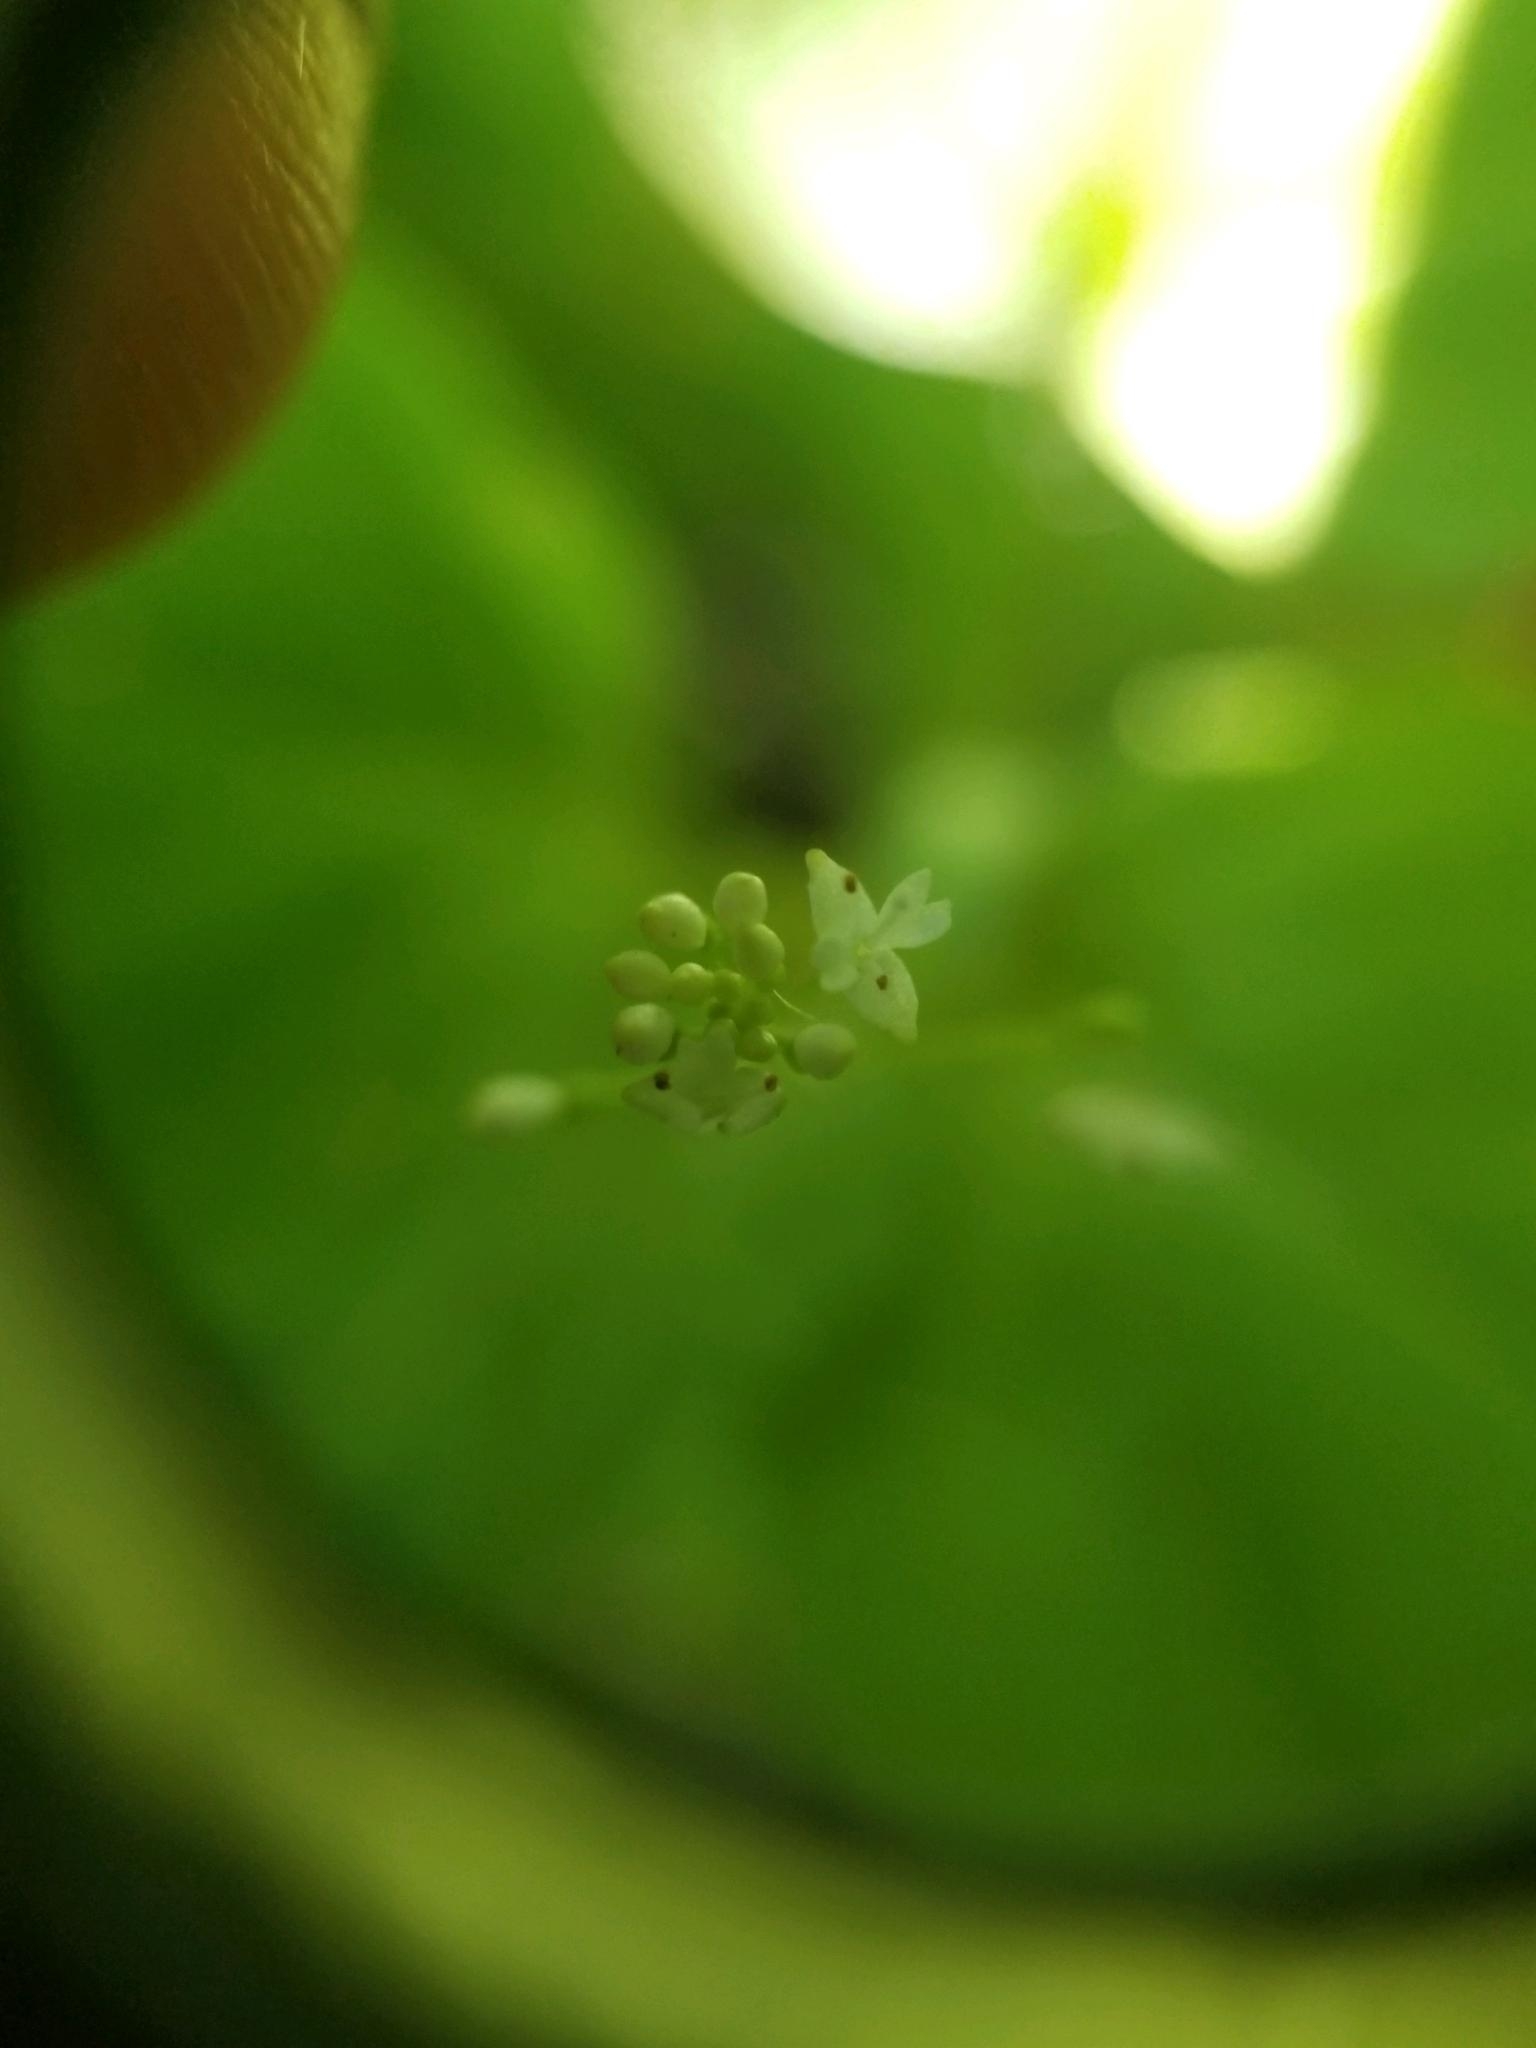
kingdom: Plantae
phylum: Tracheophyta
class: Magnoliopsida
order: Myrtales
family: Onagraceae
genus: Circaea
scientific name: Circaea alpina
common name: Alpine enchanter's-nightshade
